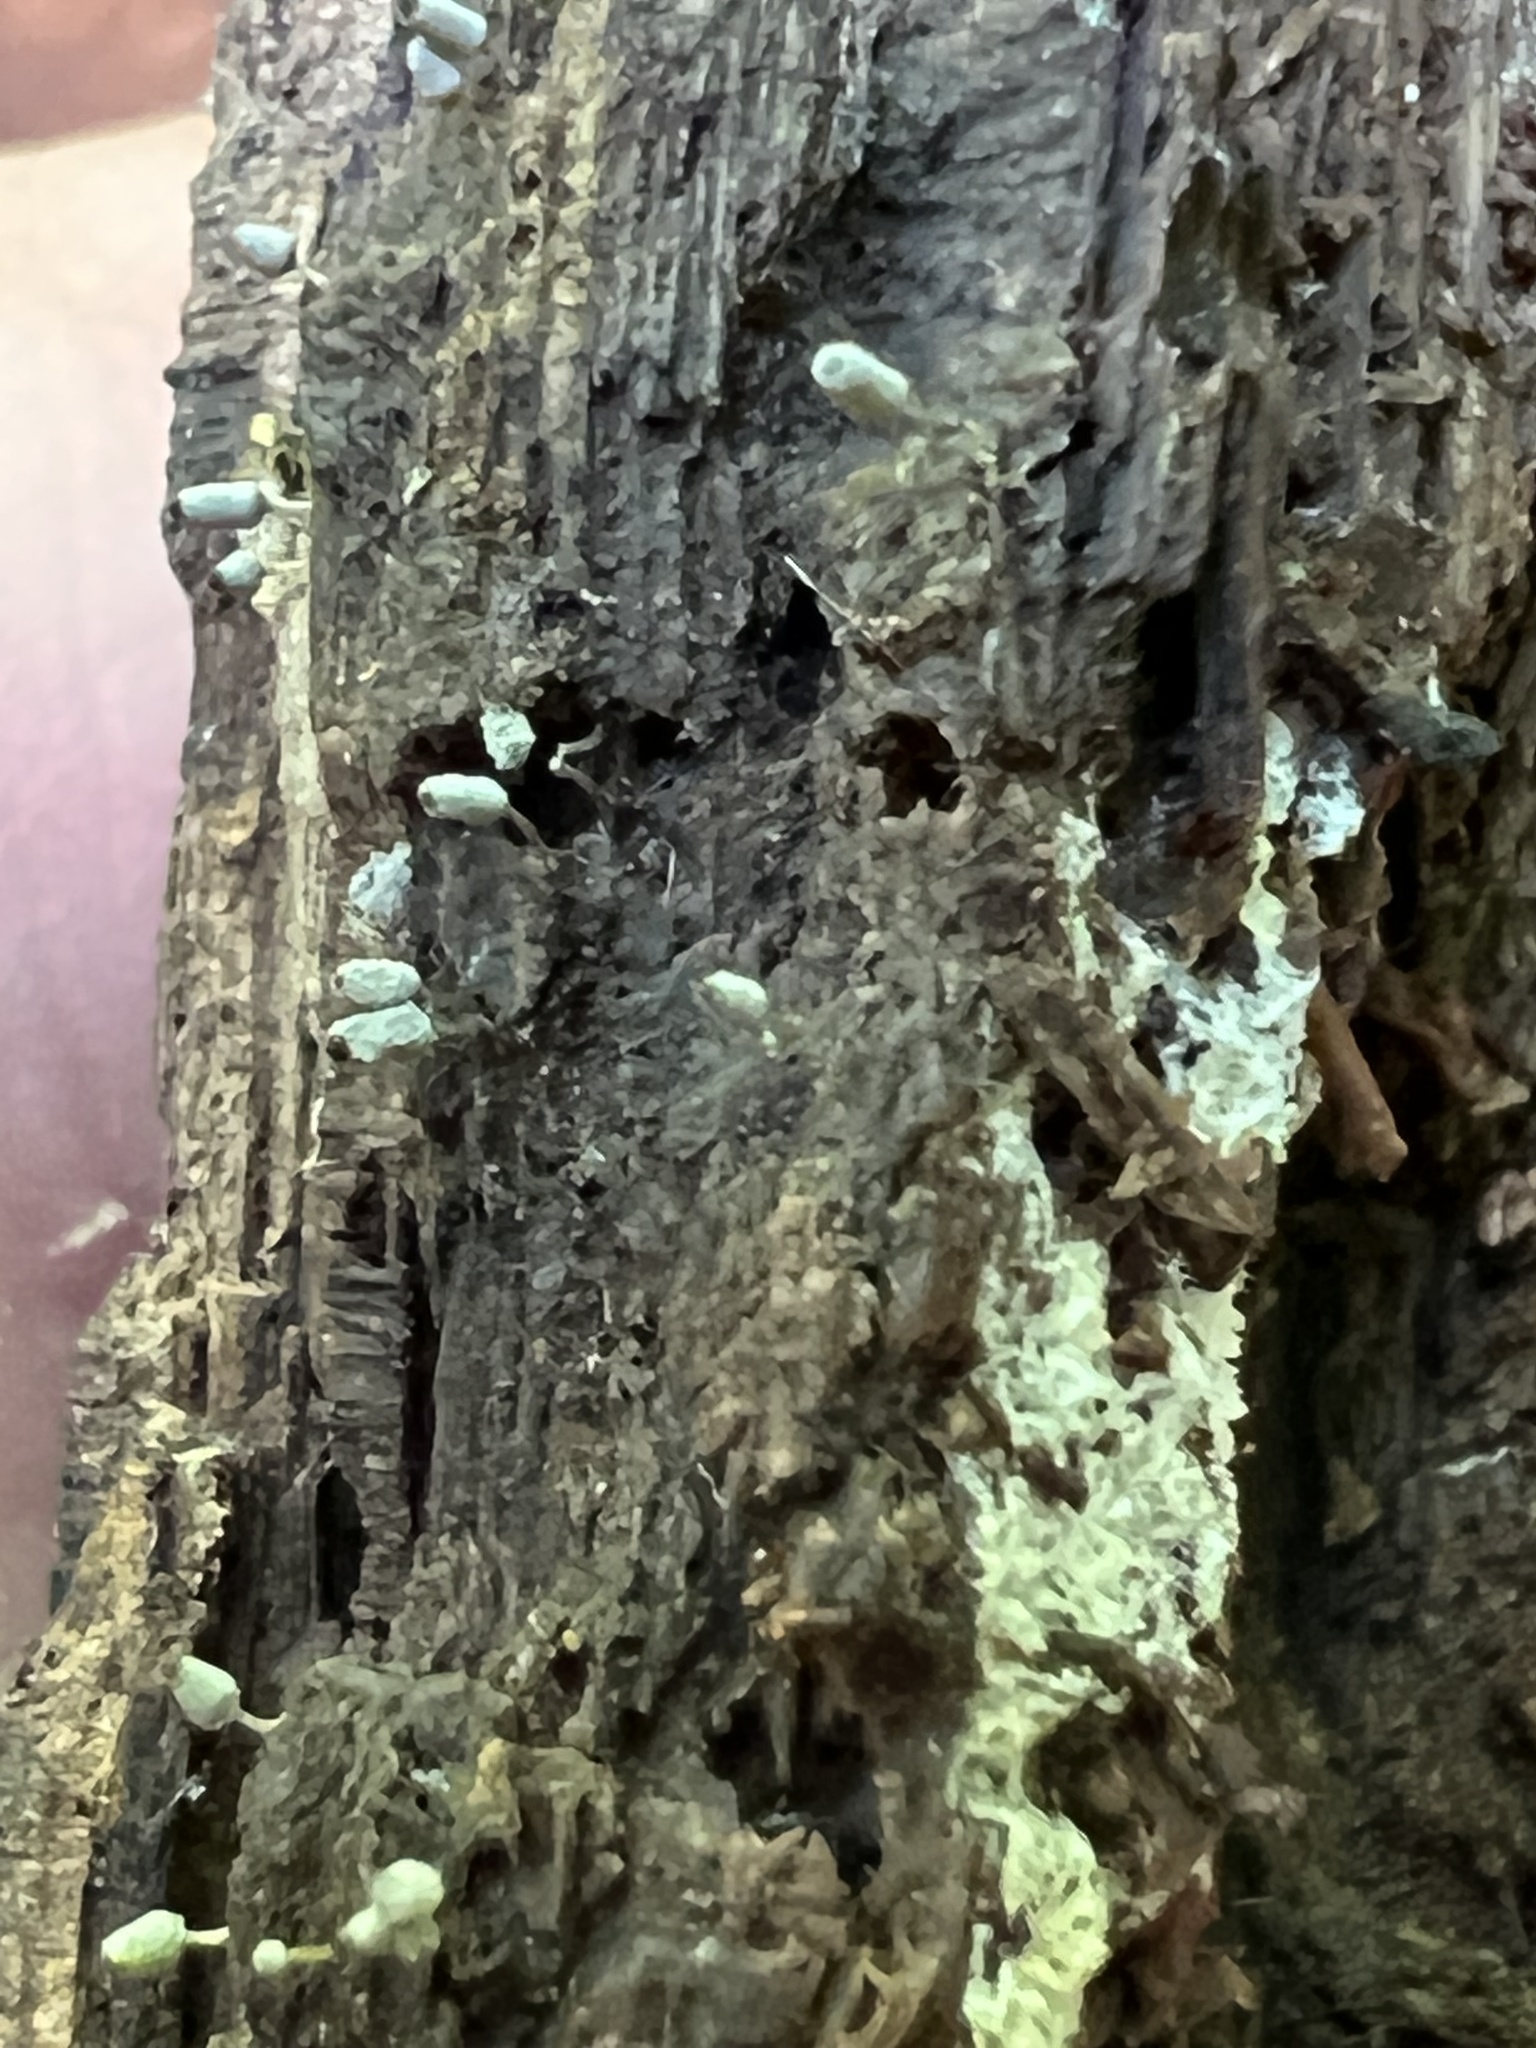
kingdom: Protozoa
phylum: Mycetozoa
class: Myxomycetes
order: Trichiales
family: Arcyriaceae
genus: Arcyria
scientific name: Arcyria cinerea
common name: White carnival candy slime mold
